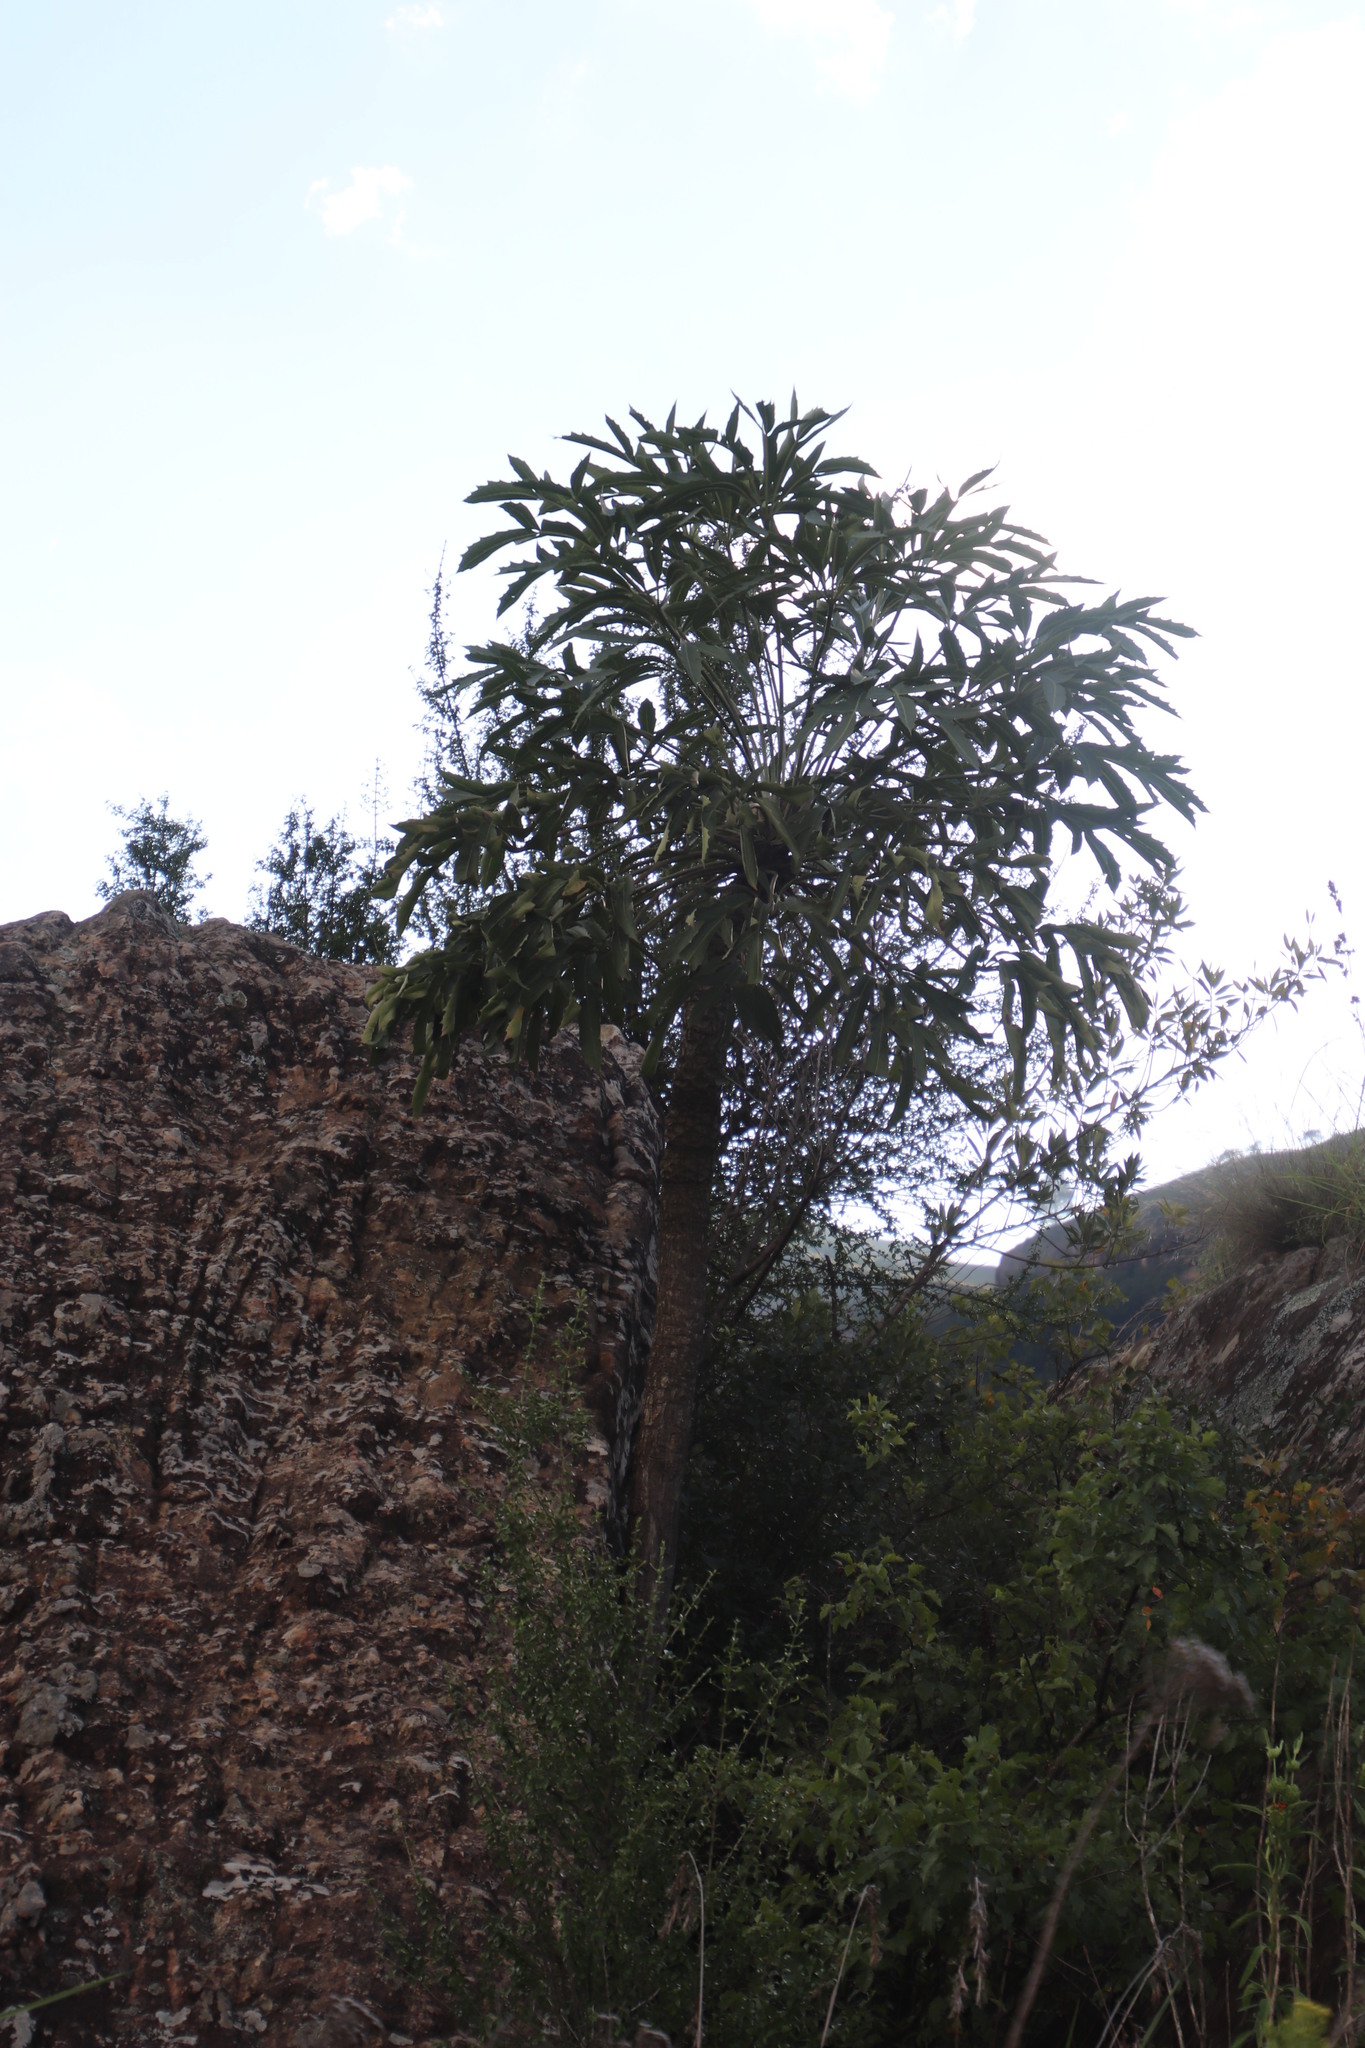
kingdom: Plantae
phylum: Tracheophyta
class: Magnoliopsida
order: Apiales
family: Araliaceae
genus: Cussonia
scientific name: Cussonia spicata
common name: Common cabbagetree
